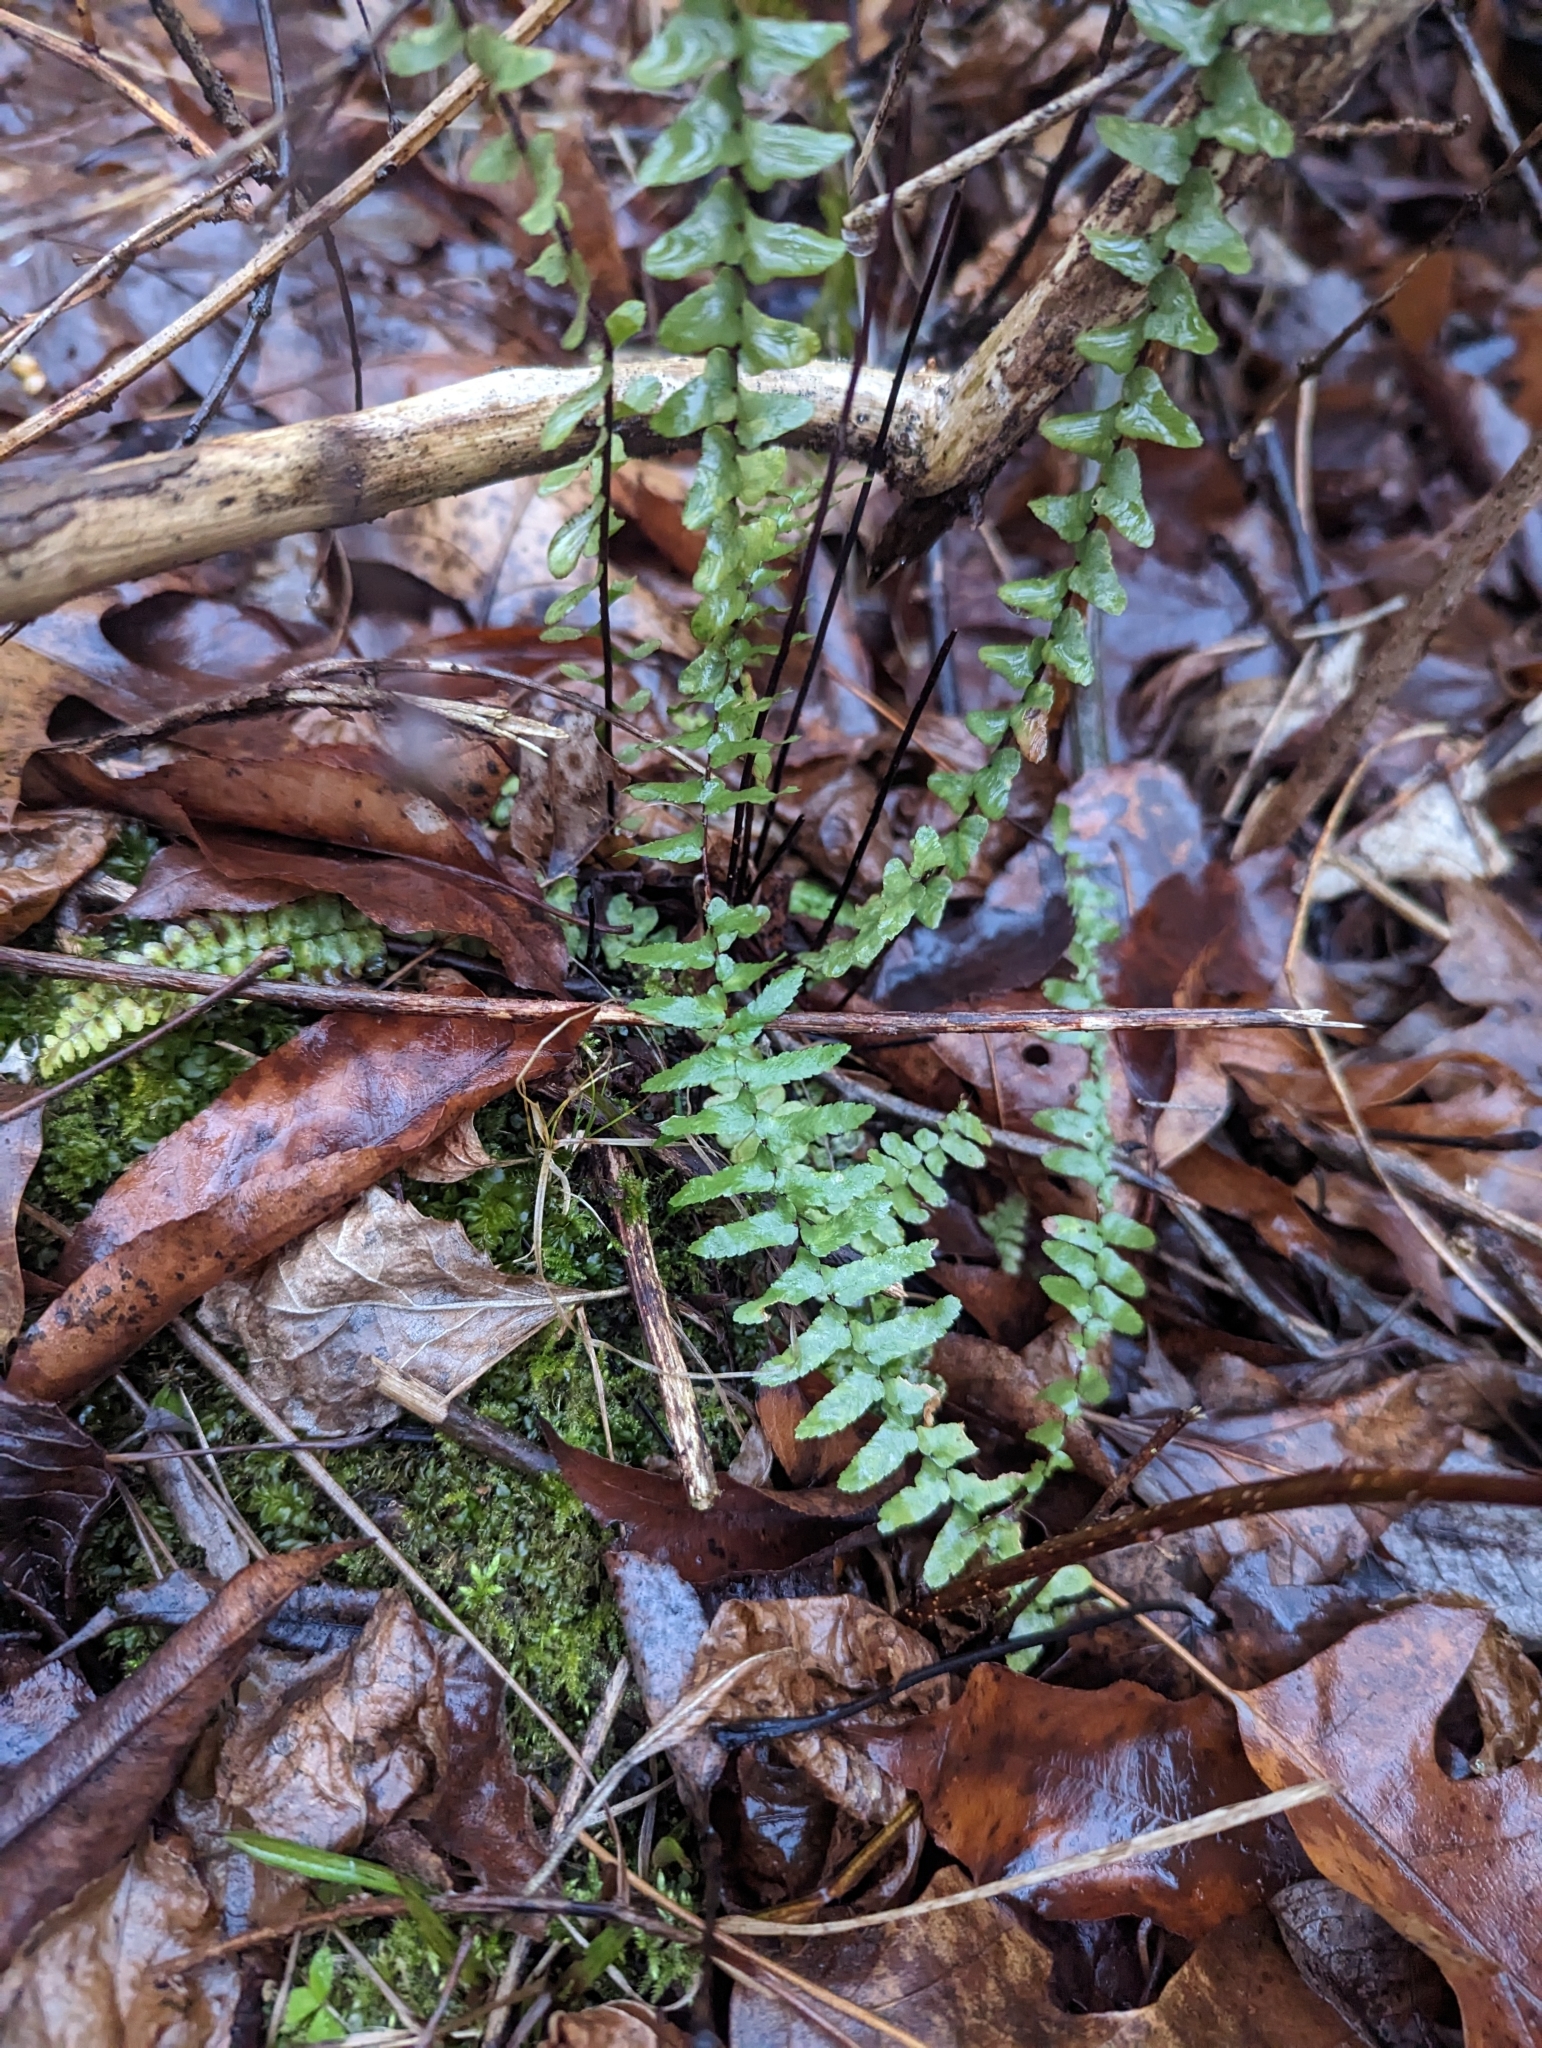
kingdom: Plantae
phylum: Tracheophyta
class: Polypodiopsida
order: Polypodiales
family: Aspleniaceae
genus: Asplenium
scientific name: Asplenium platyneuron
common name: Ebony spleenwort
